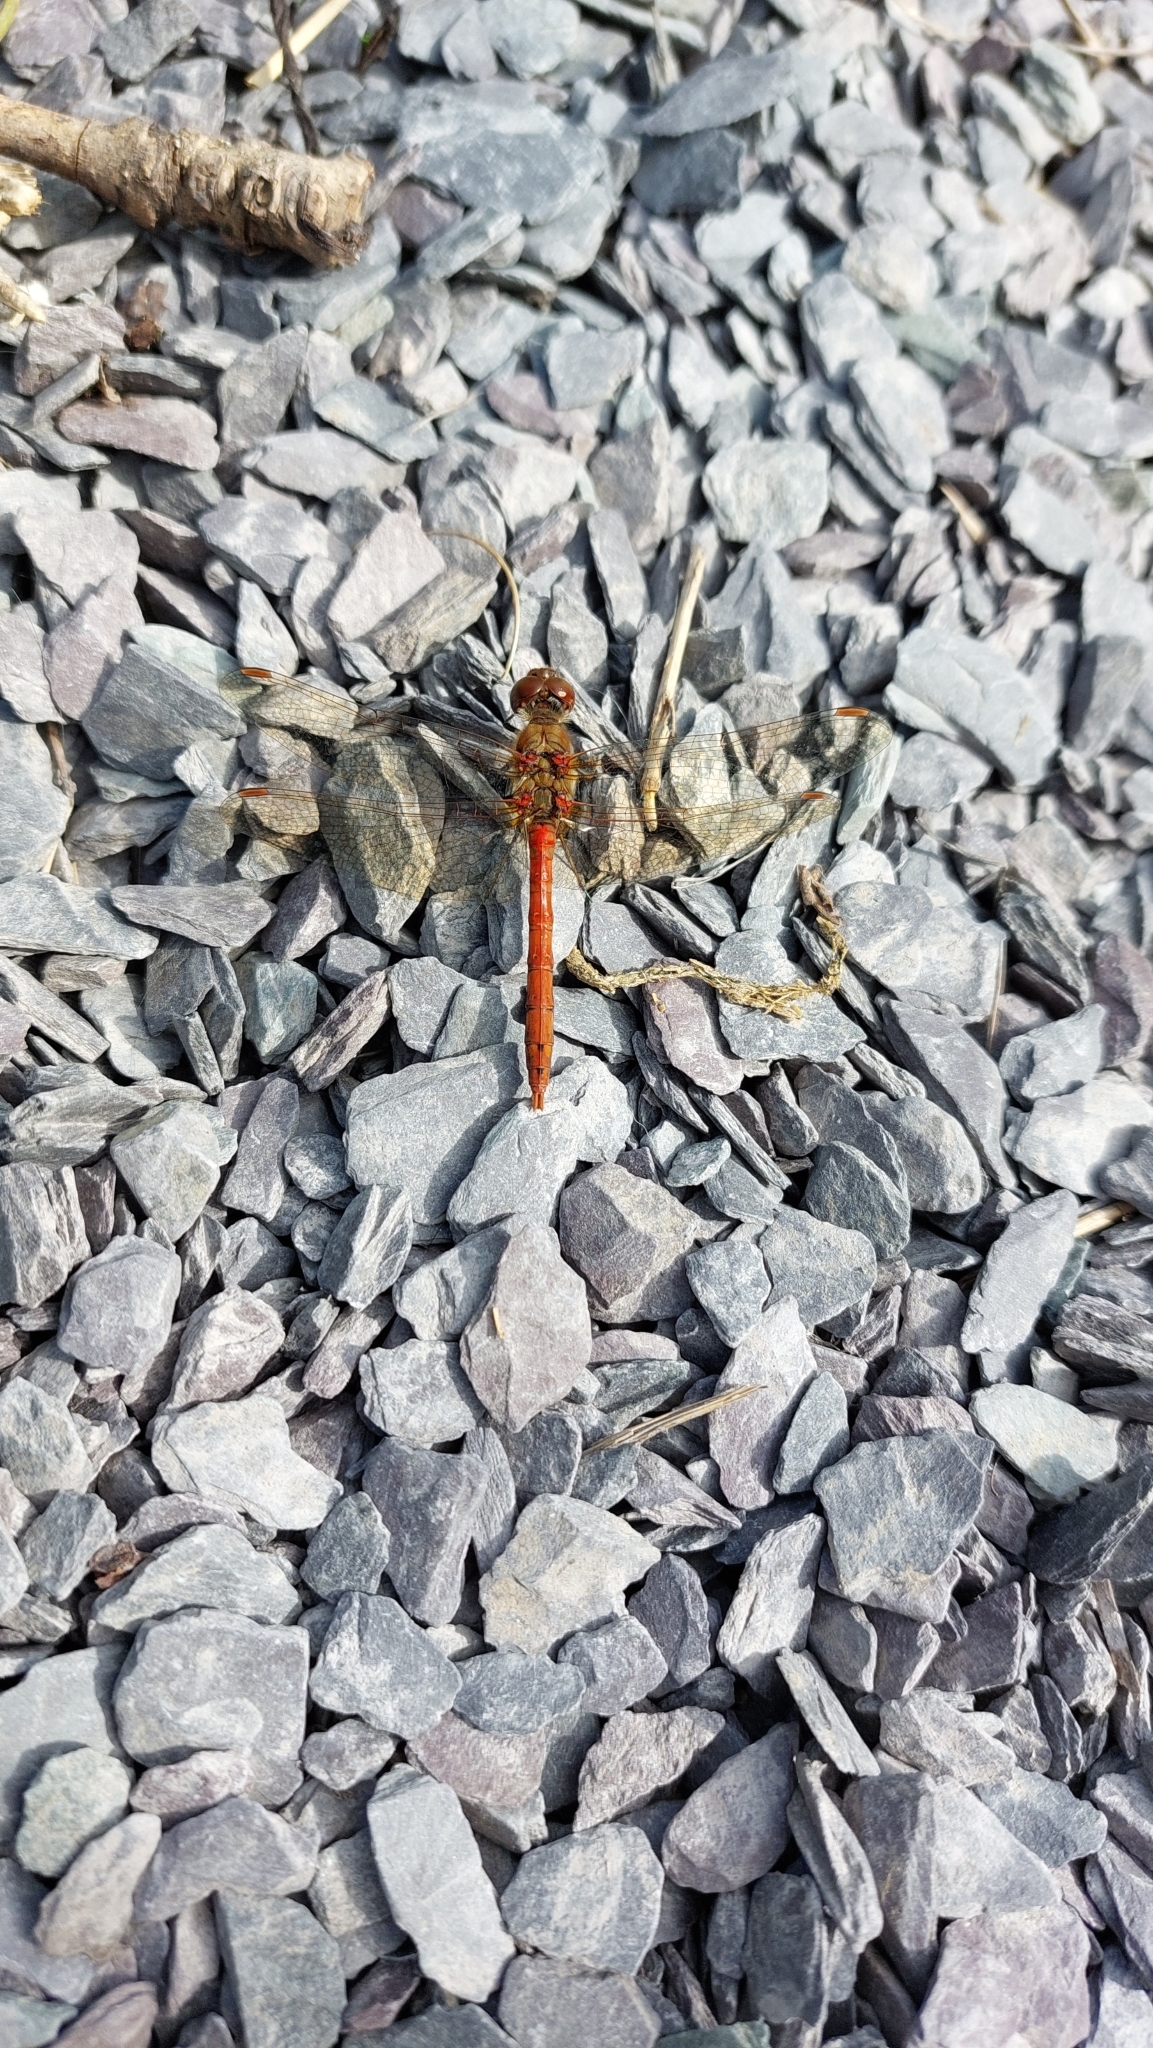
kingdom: Animalia
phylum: Arthropoda
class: Insecta
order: Odonata
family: Libellulidae
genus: Sympetrum
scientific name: Sympetrum striolatum
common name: Common darter
